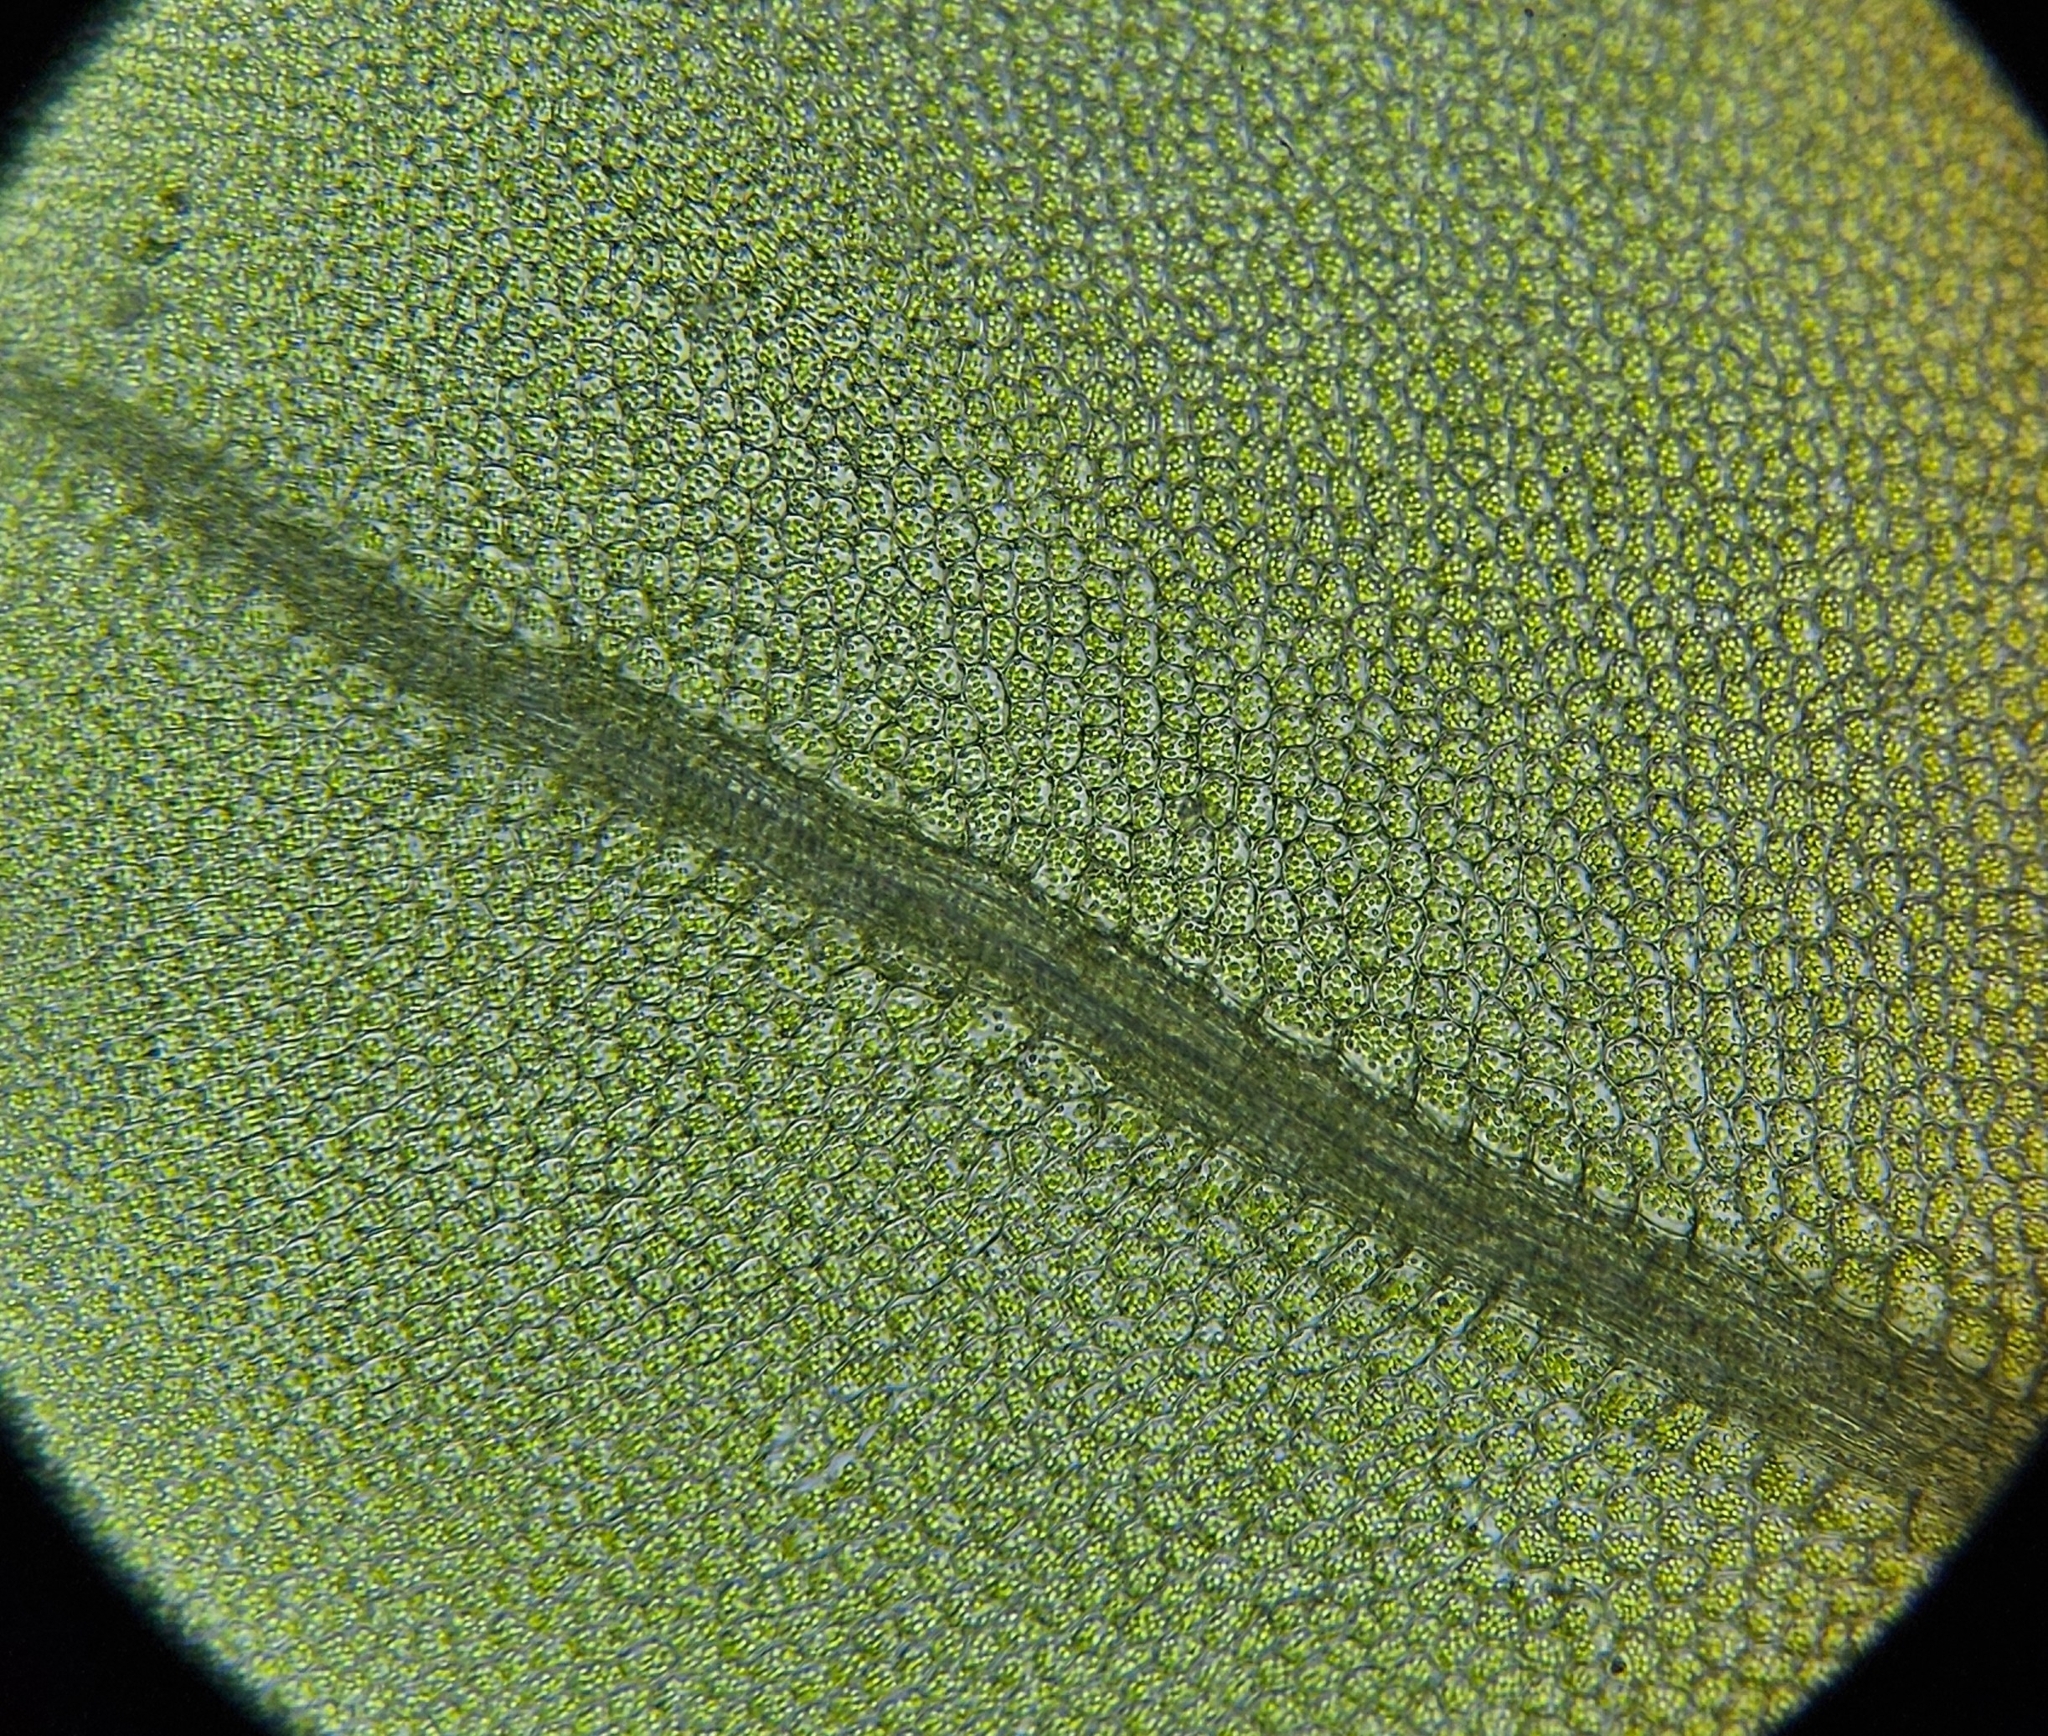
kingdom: Plantae
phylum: Bryophyta
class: Bryopsida
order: Bryales
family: Mniaceae
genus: Plagiomnium
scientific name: Plagiomnium rostratum
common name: Long-beaked leafy moss
